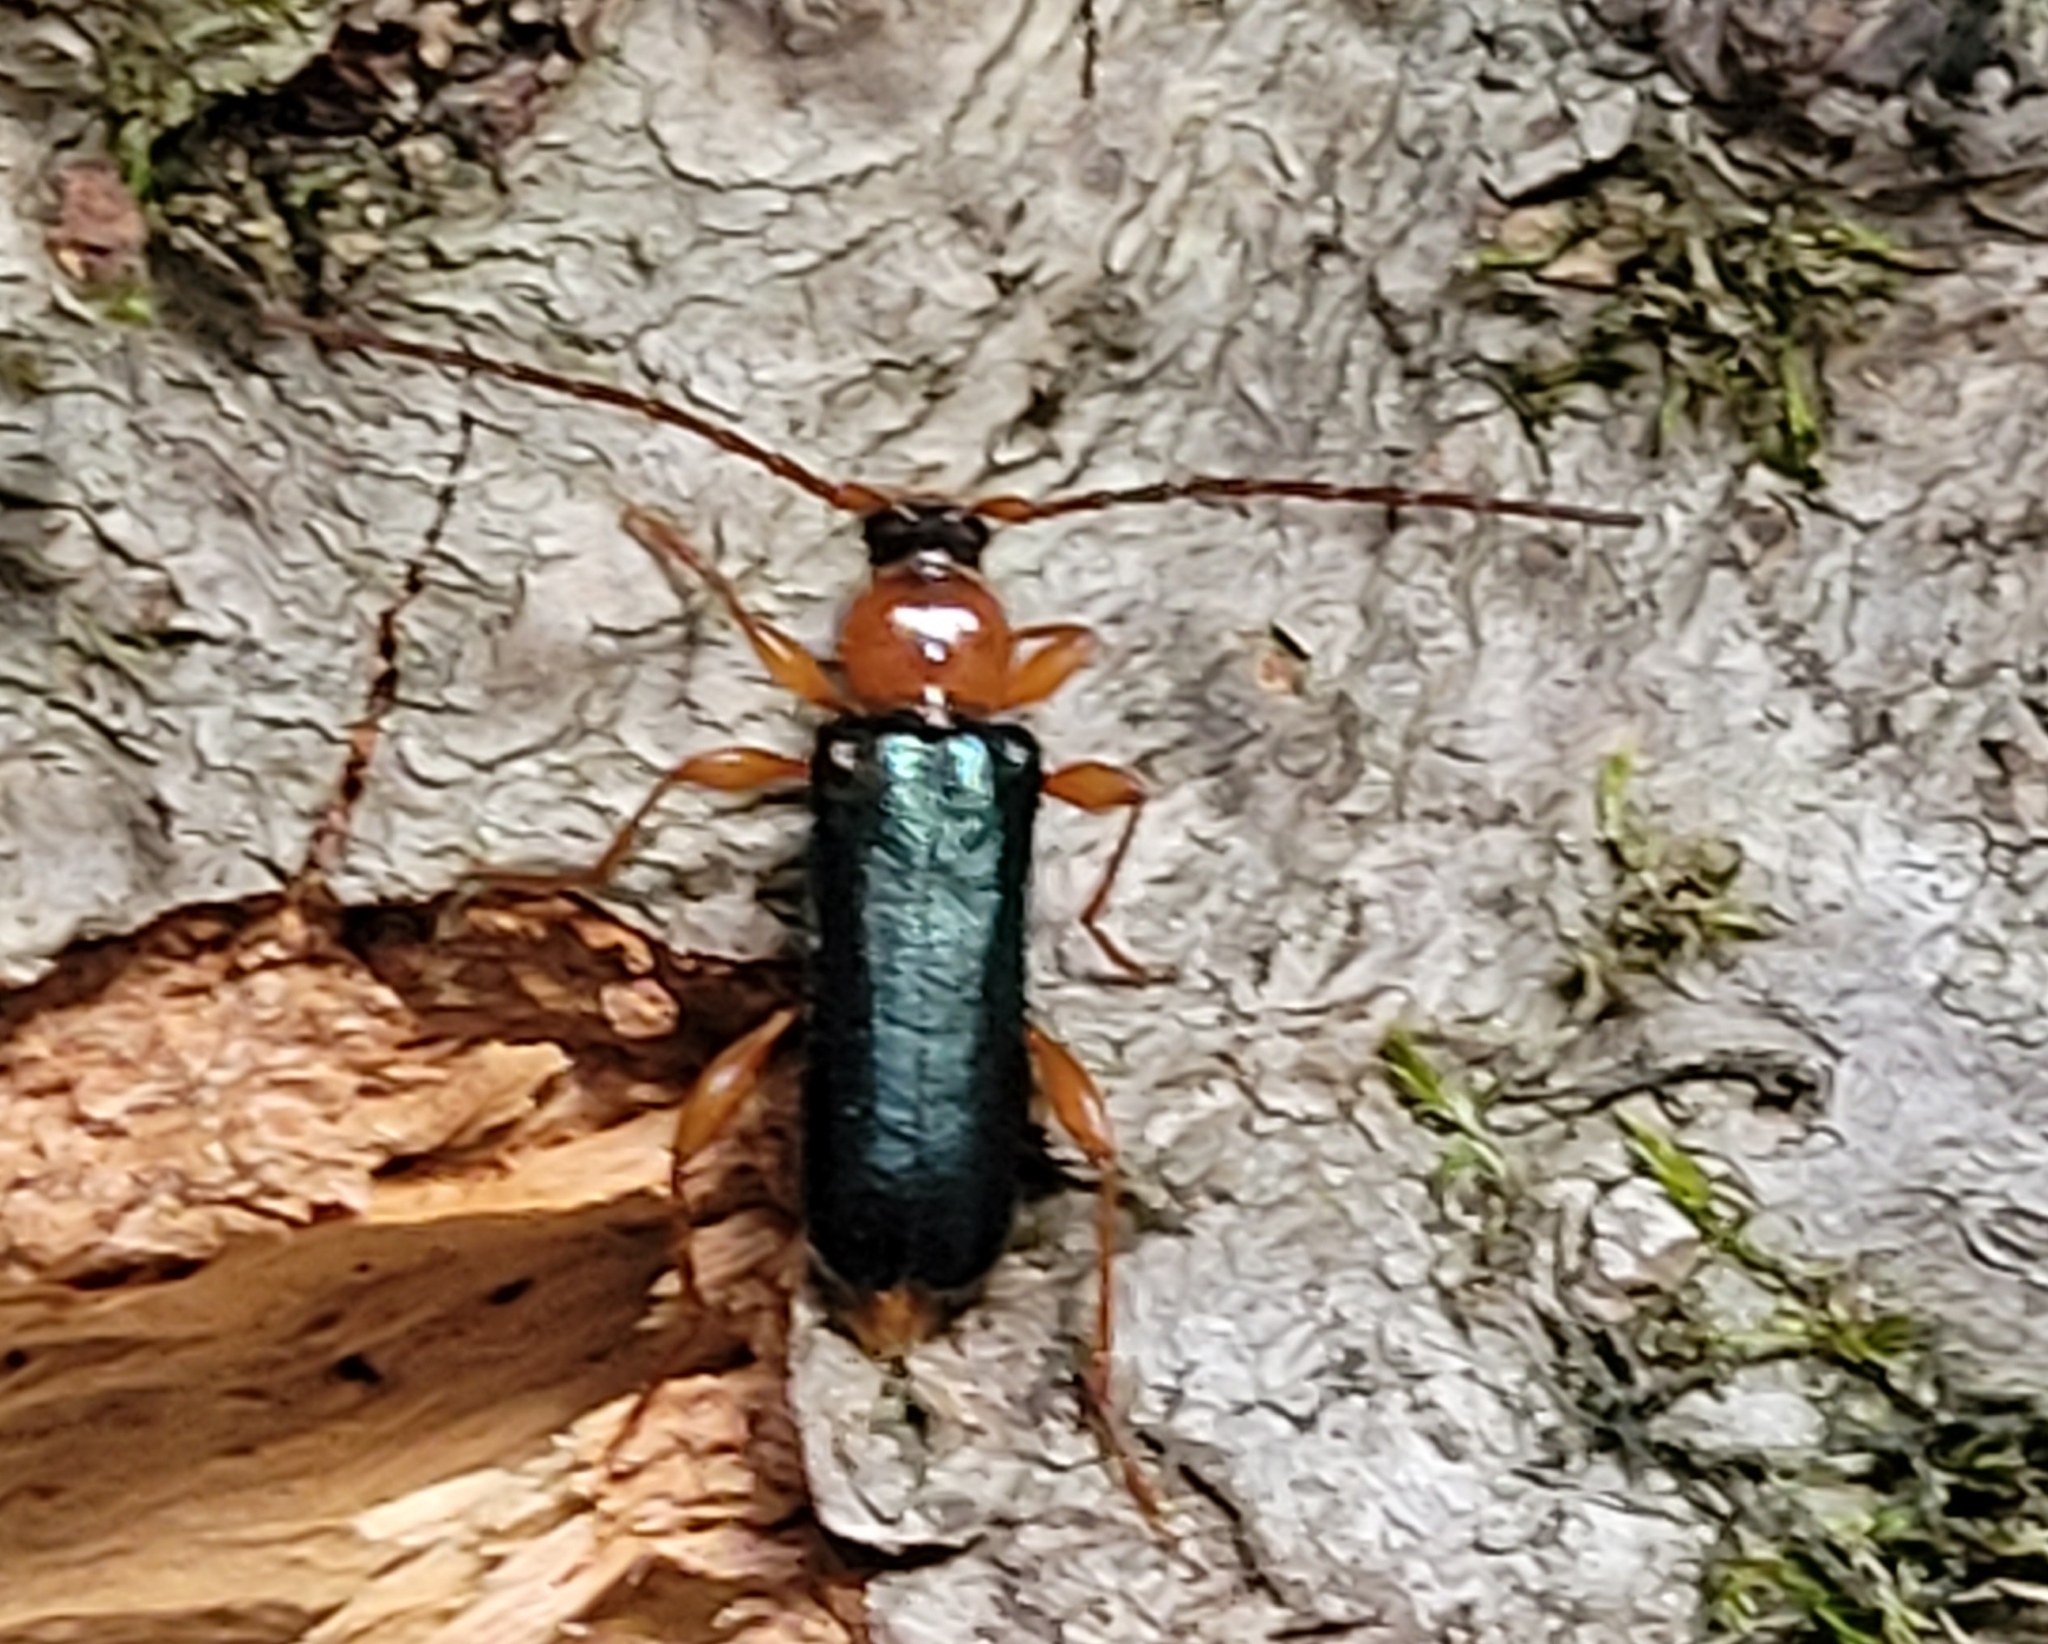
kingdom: Animalia
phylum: Arthropoda
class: Insecta
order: Coleoptera
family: Cerambycidae
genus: Phymatodes
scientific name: Phymatodes testaceus
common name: Long-horned beetle
